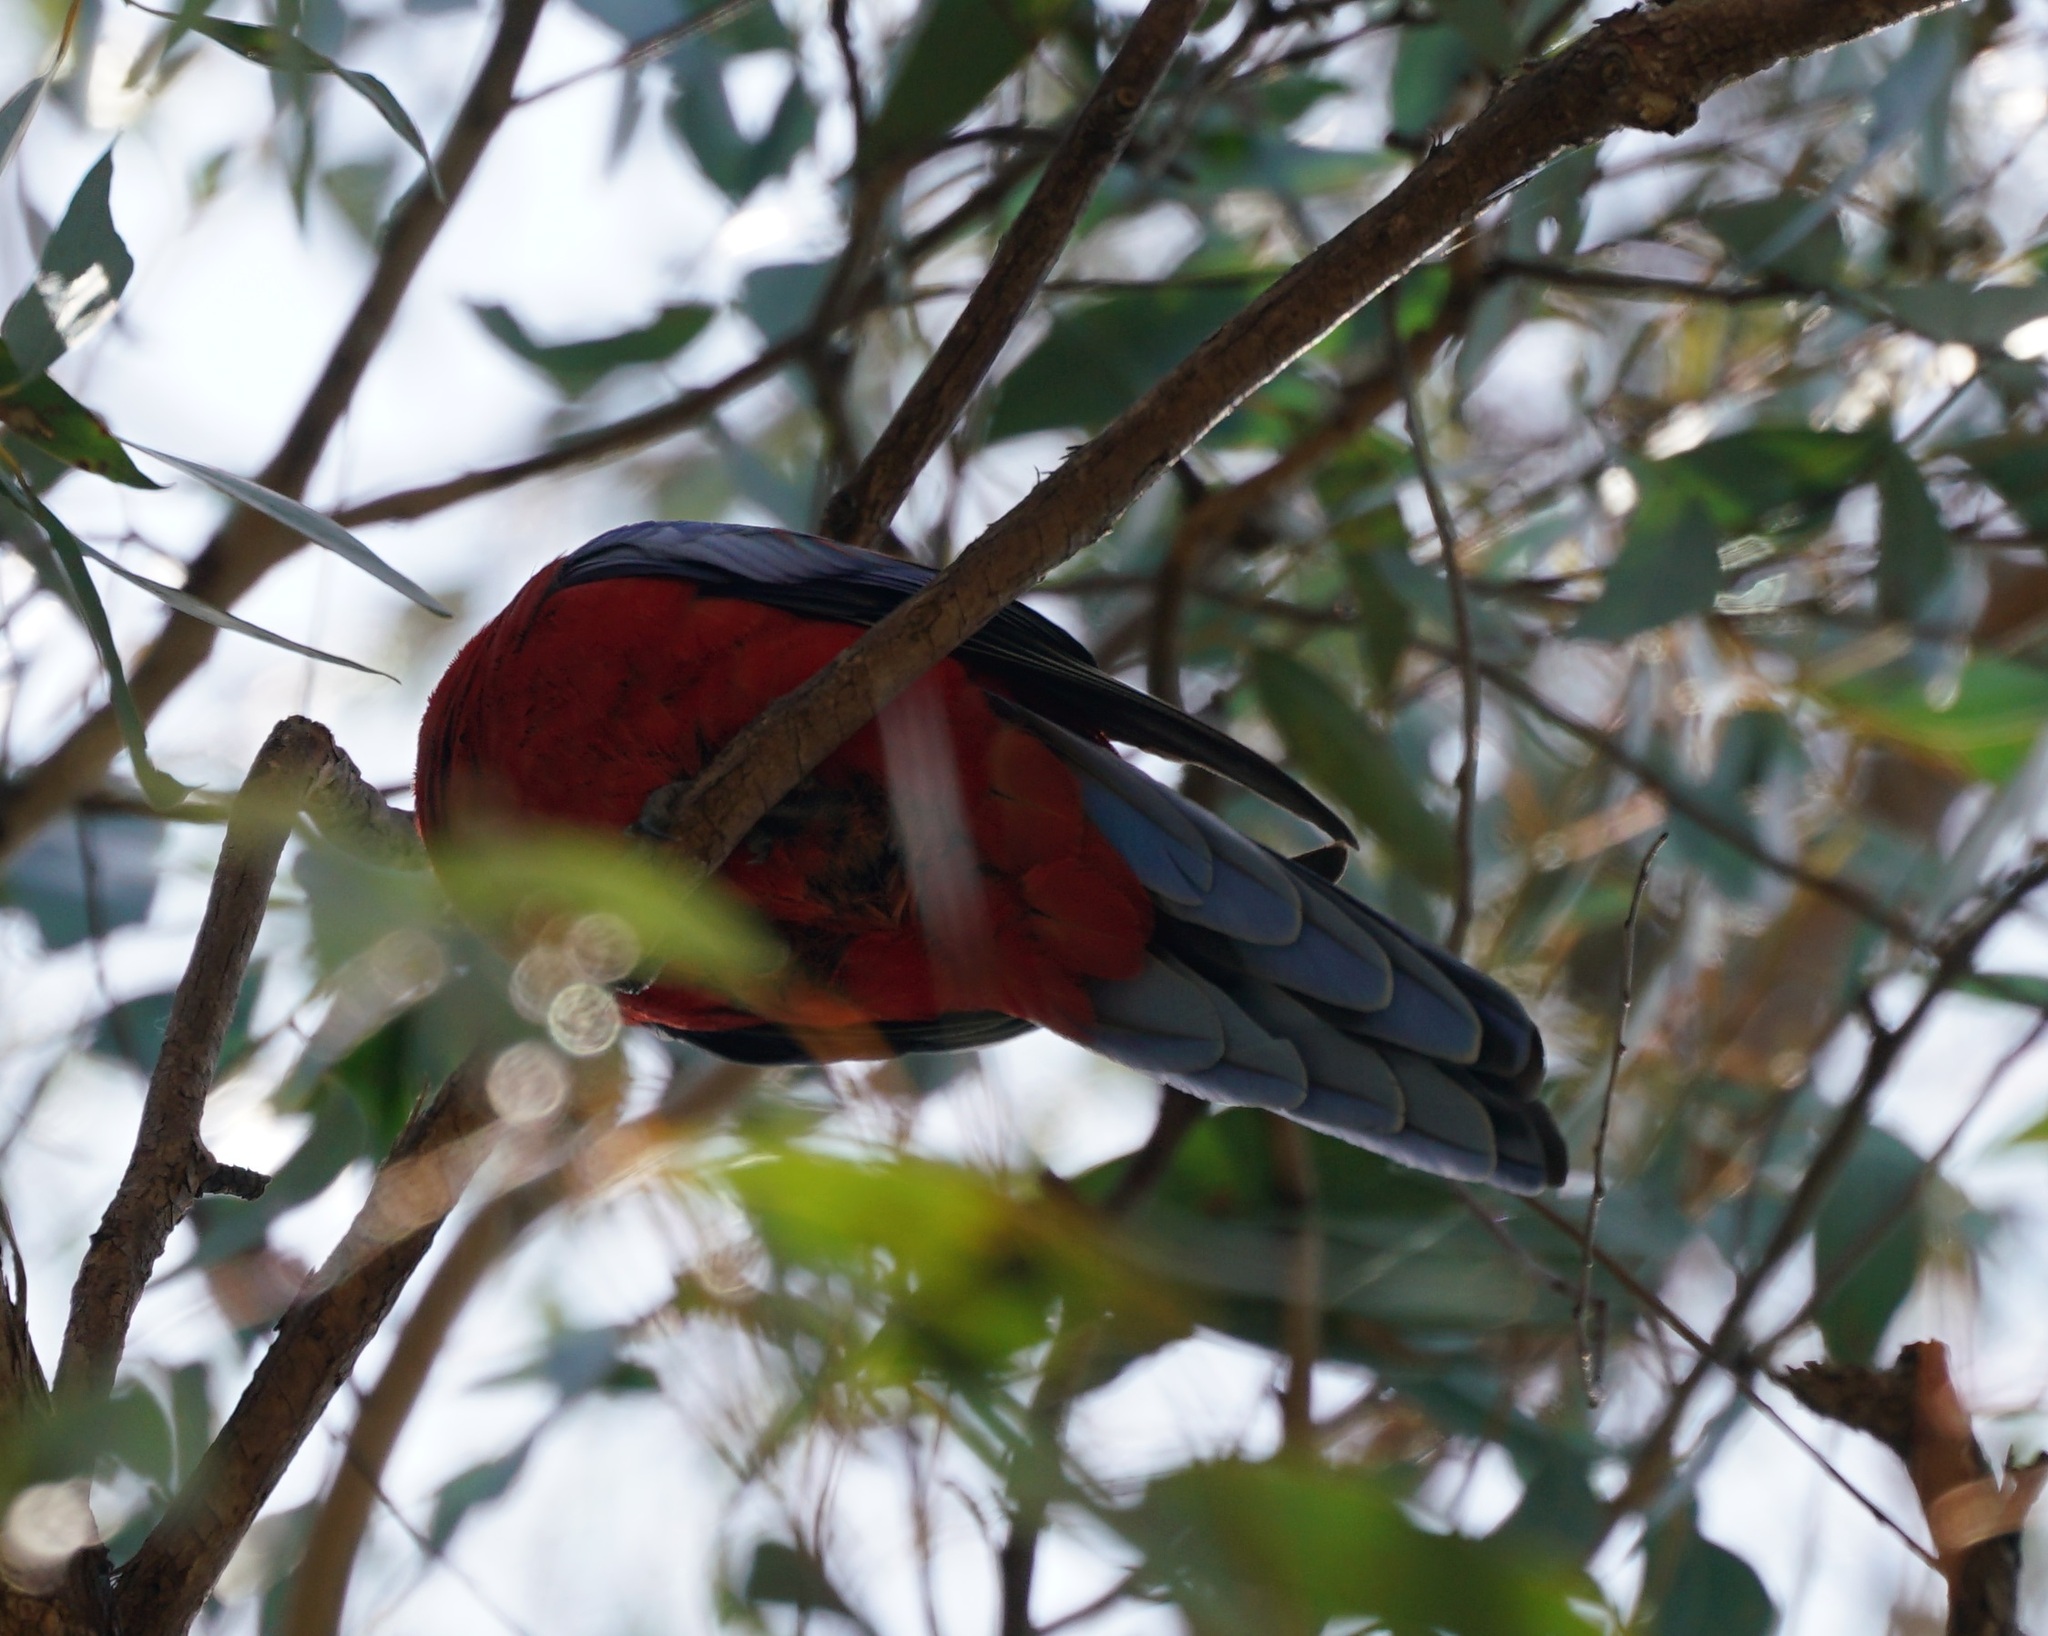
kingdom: Animalia
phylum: Chordata
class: Aves
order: Psittaciformes
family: Psittacidae
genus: Platycercus
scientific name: Platycercus elegans
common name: Crimson rosella
